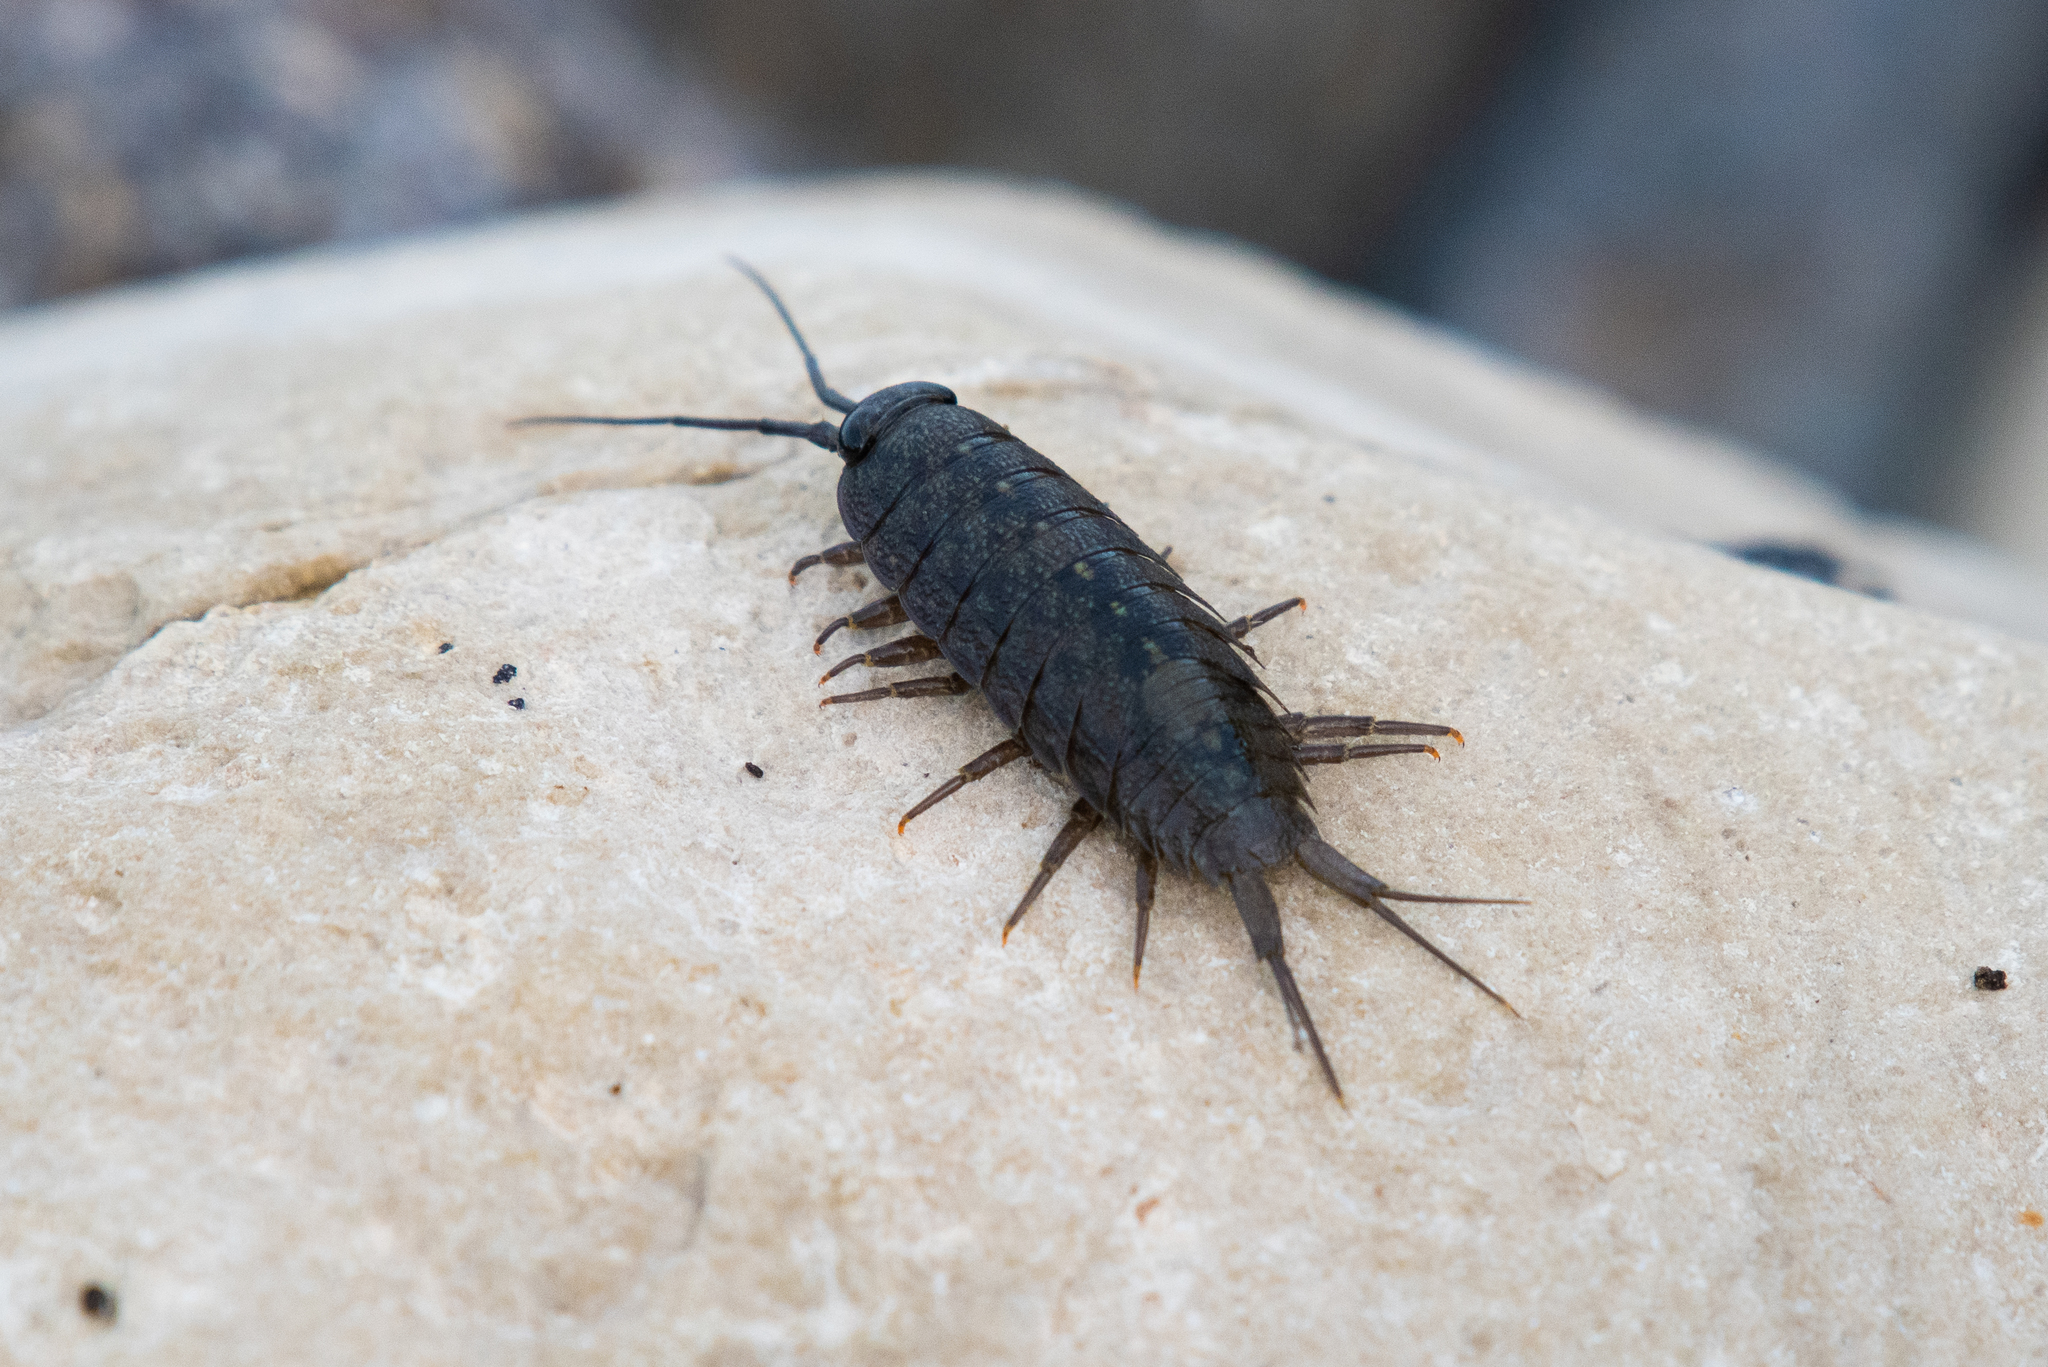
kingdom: Animalia
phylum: Arthropoda
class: Malacostraca
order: Isopoda
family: Ligiidae
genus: Ligia
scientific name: Ligia occidentalis
